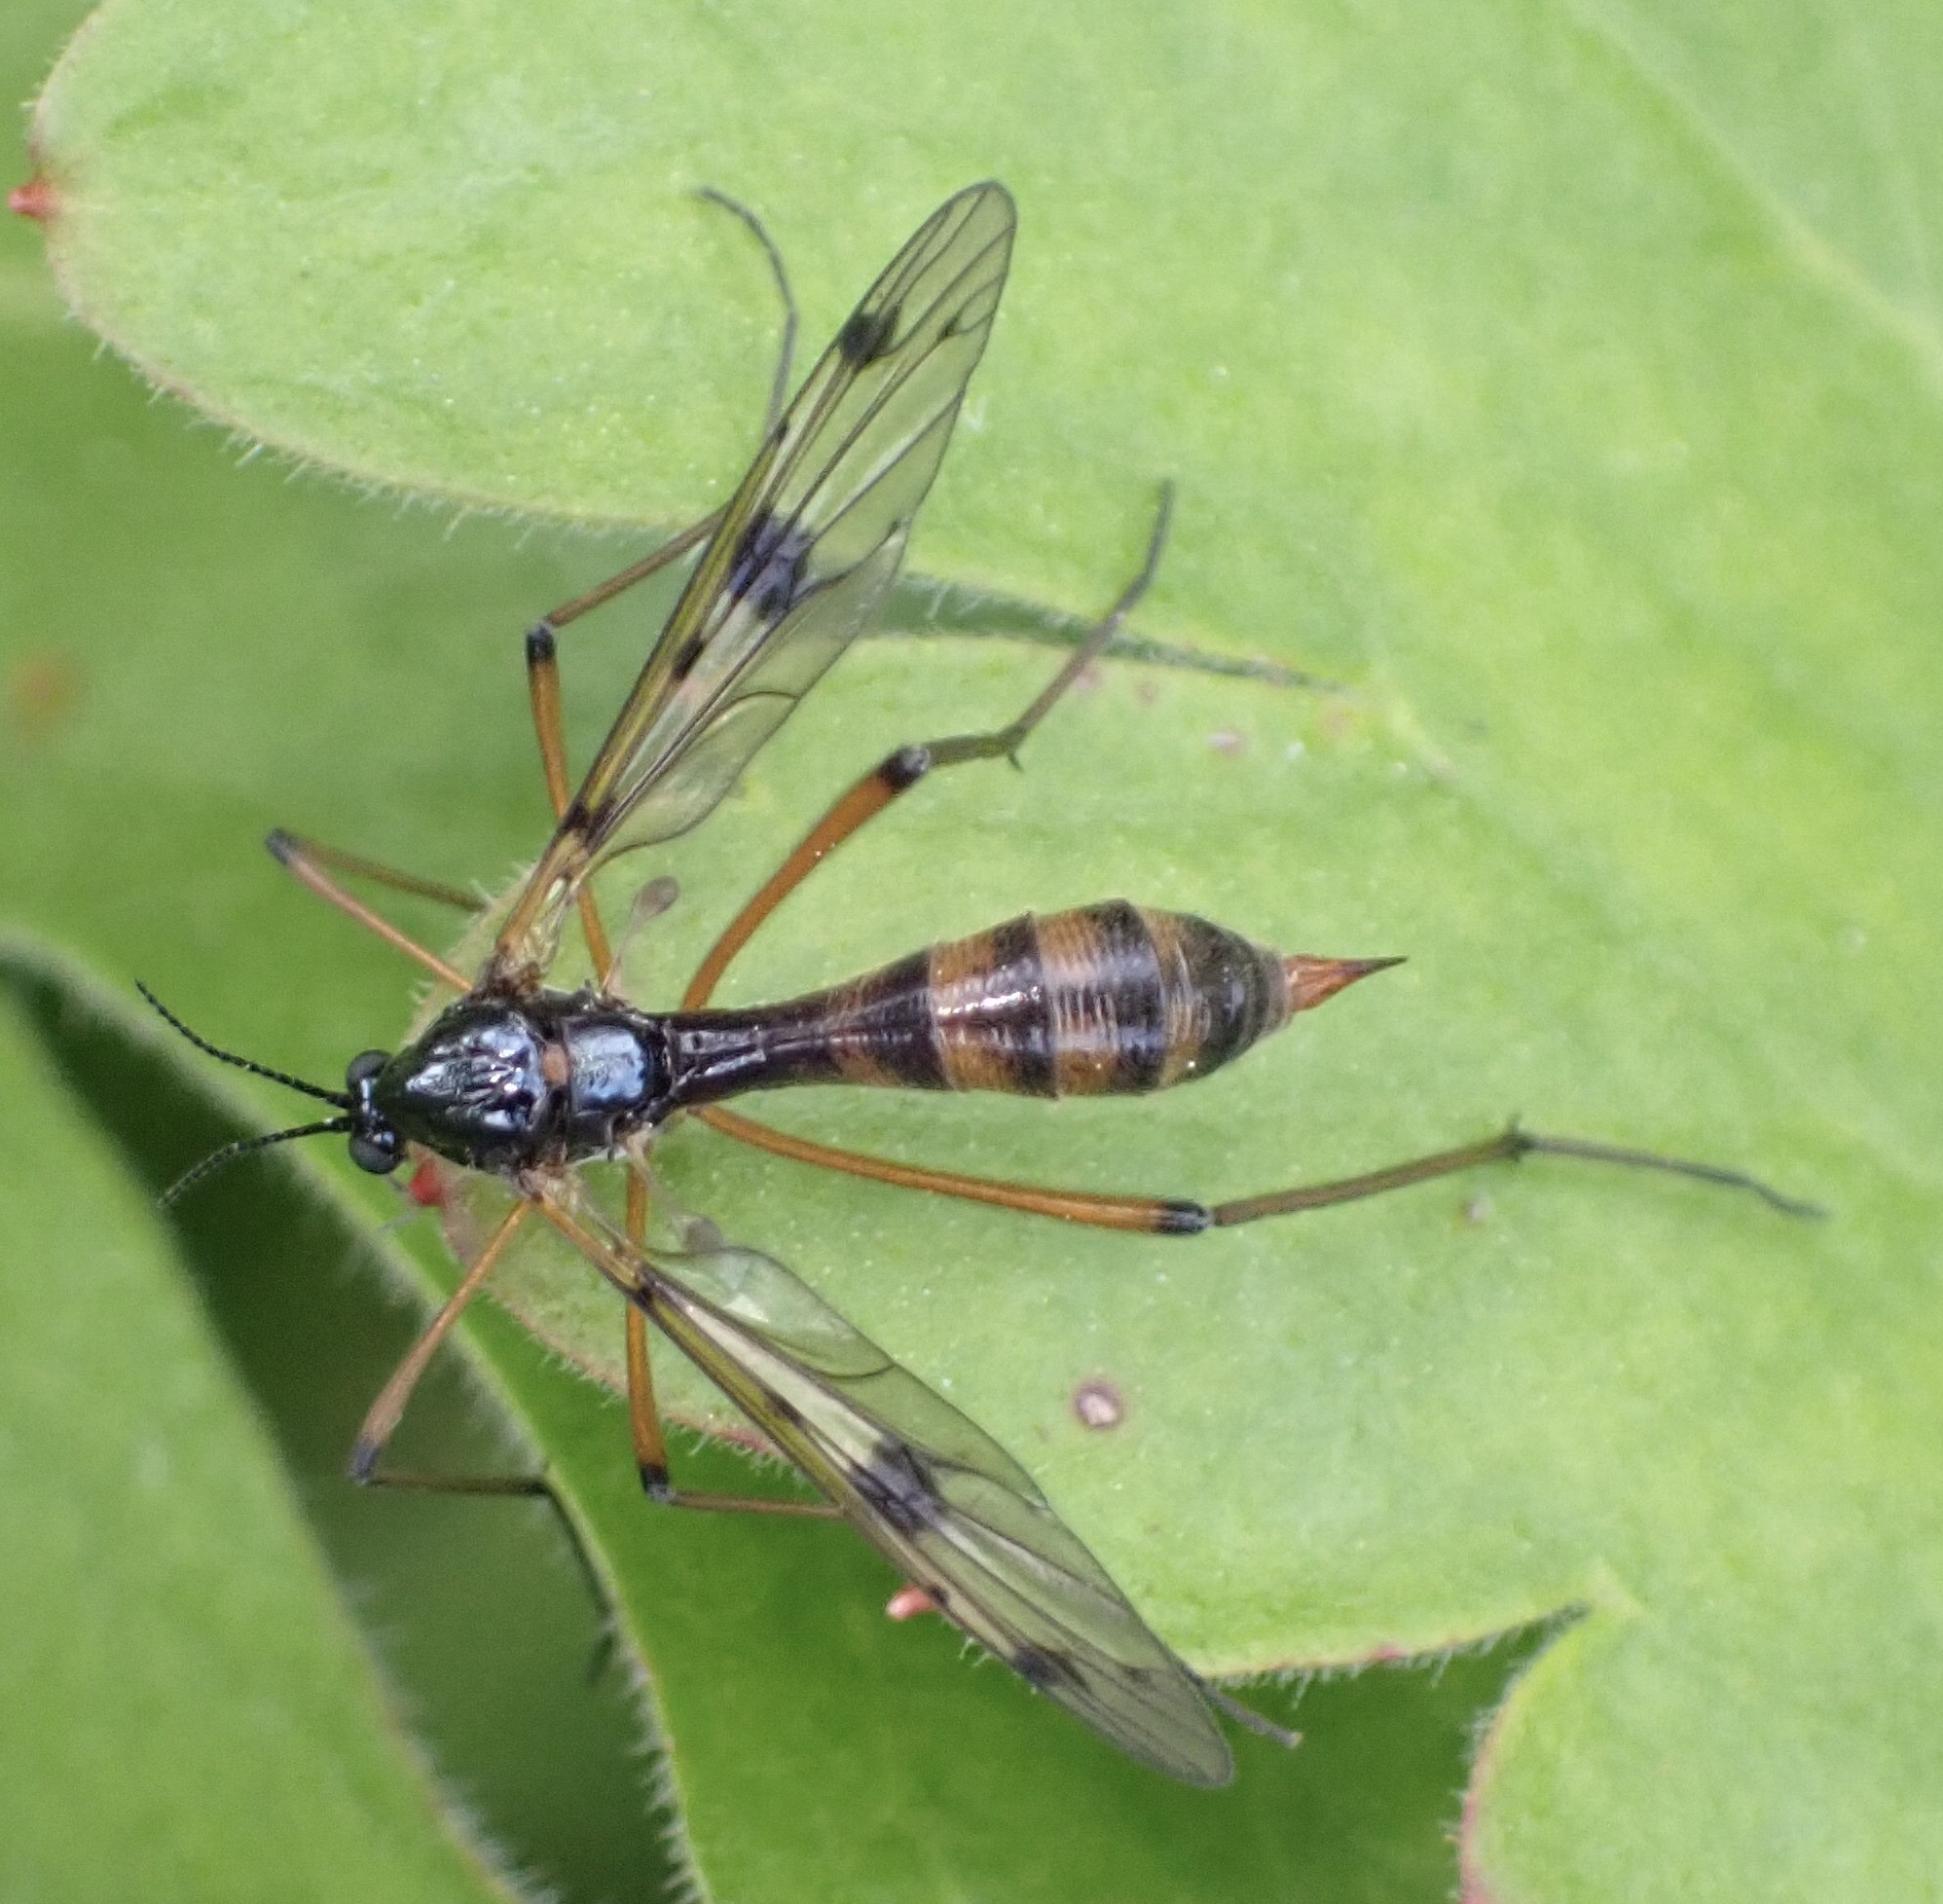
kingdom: Animalia
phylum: Arthropoda
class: Insecta
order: Diptera
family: Ptychopteridae
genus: Ptychoptera
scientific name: Ptychoptera contaminata
